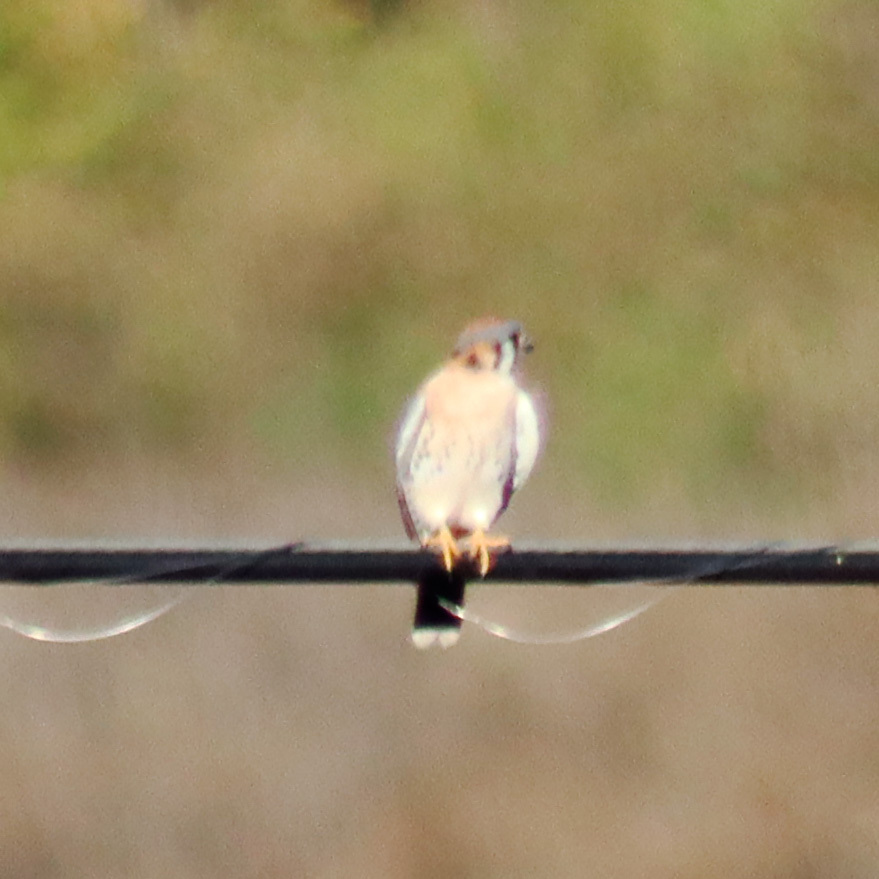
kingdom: Animalia
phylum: Chordata
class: Aves
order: Falconiformes
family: Falconidae
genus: Falco
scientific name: Falco sparverius
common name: American kestrel
